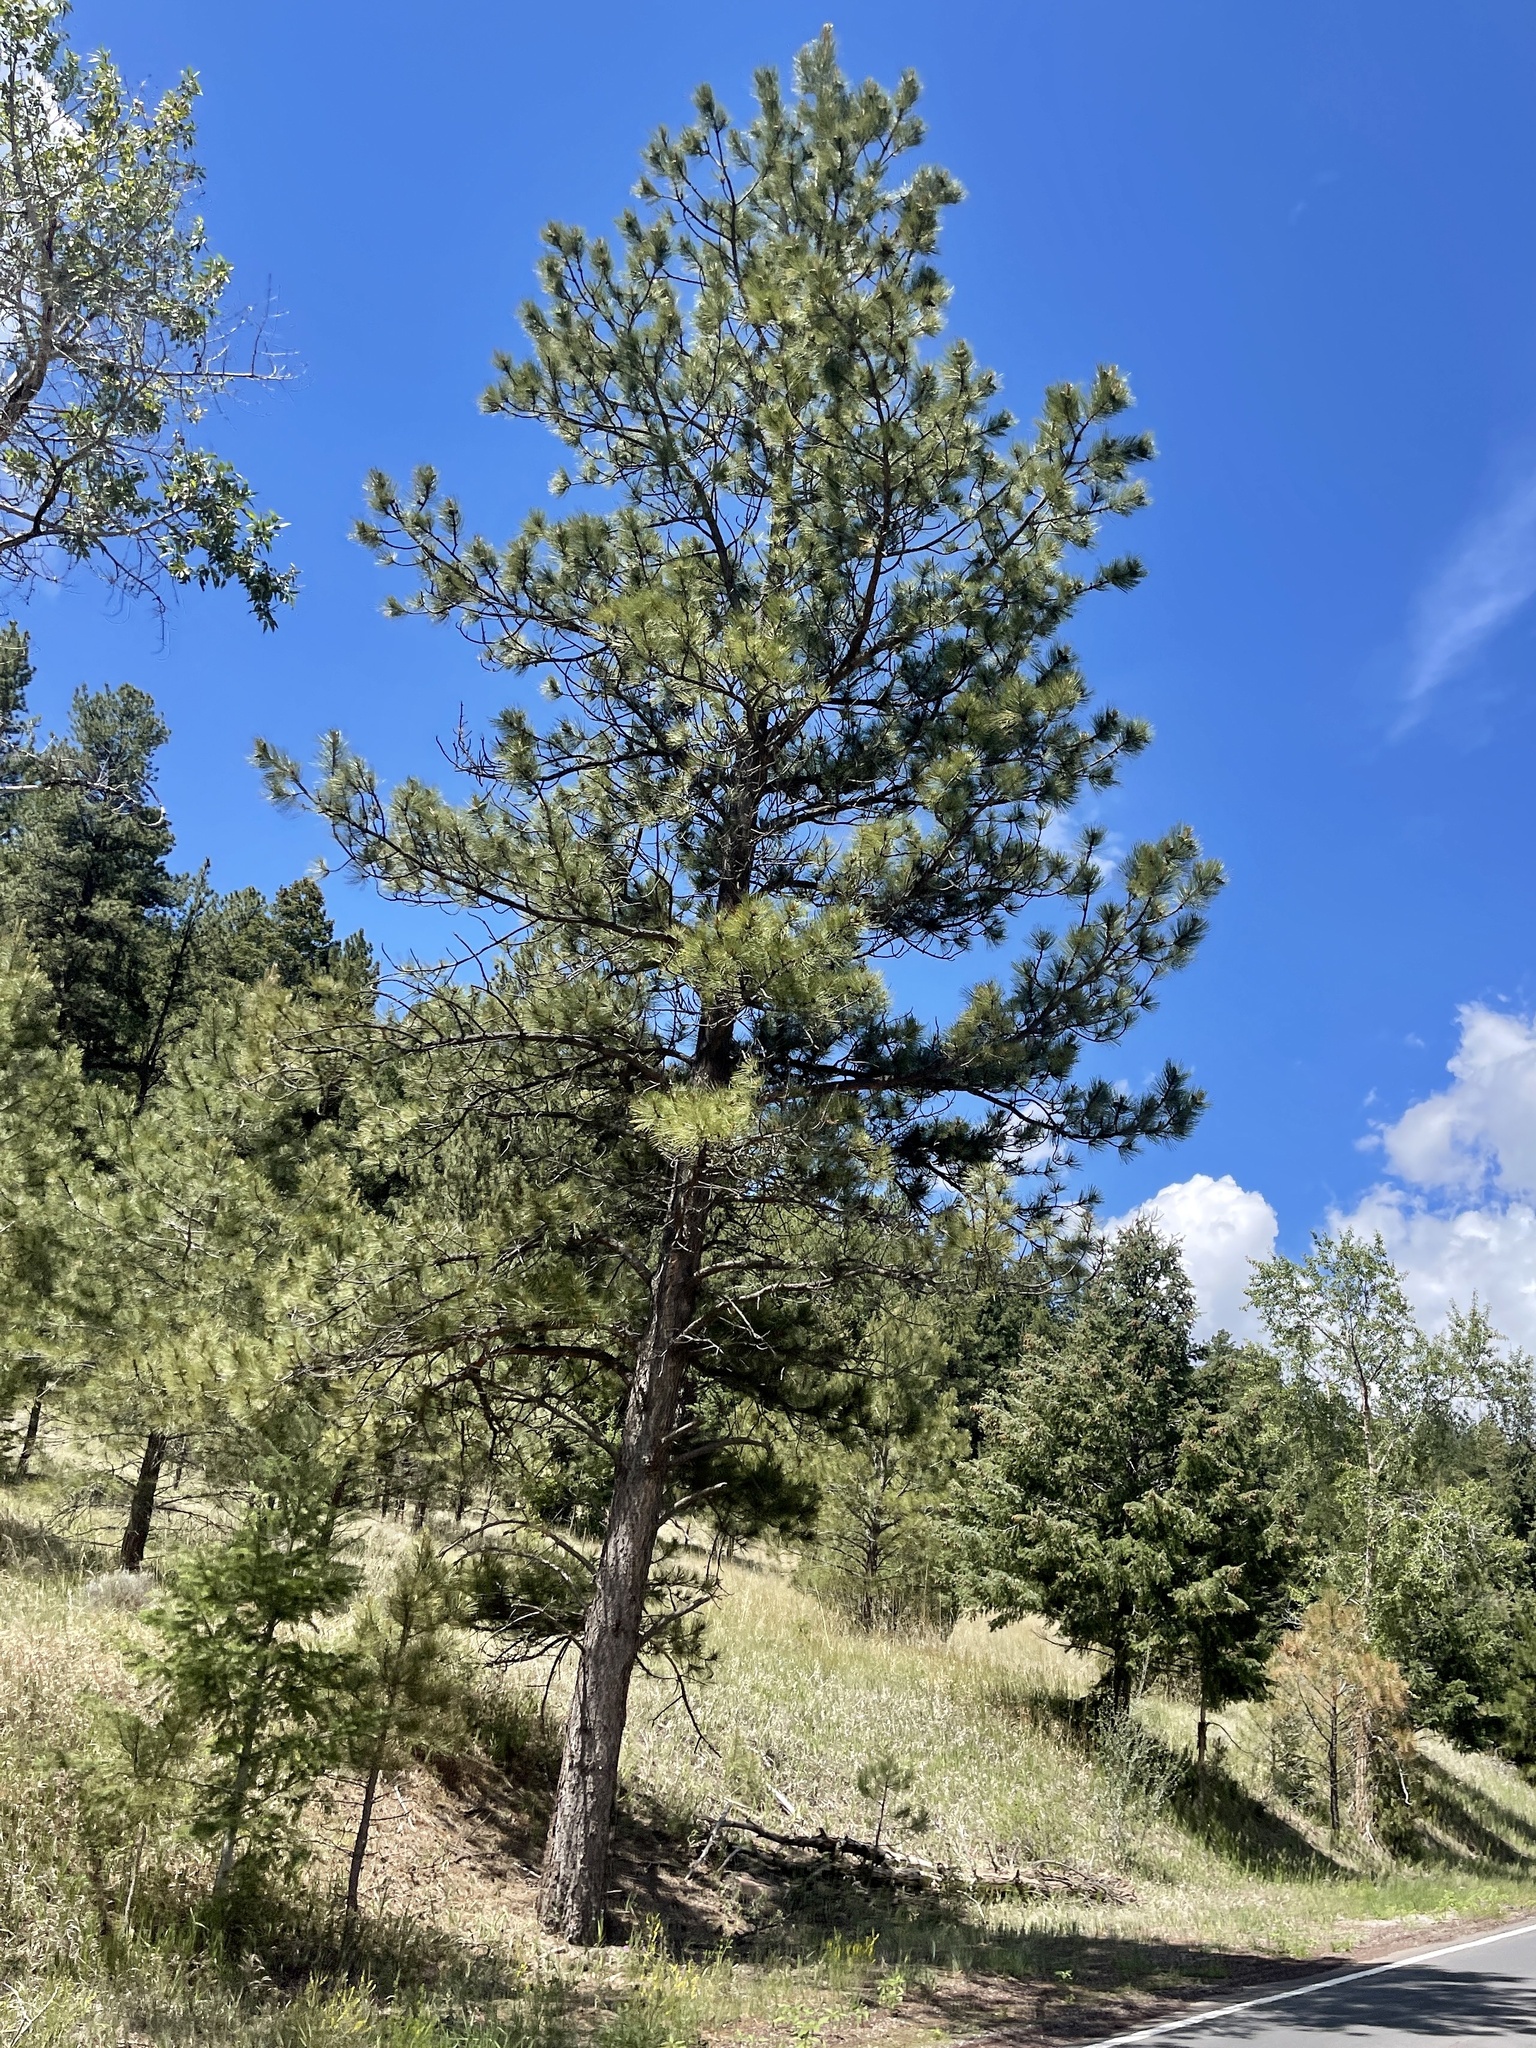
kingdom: Plantae
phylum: Tracheophyta
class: Pinopsida
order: Pinales
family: Pinaceae
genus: Pinus
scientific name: Pinus ponderosa
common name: Western yellow-pine
